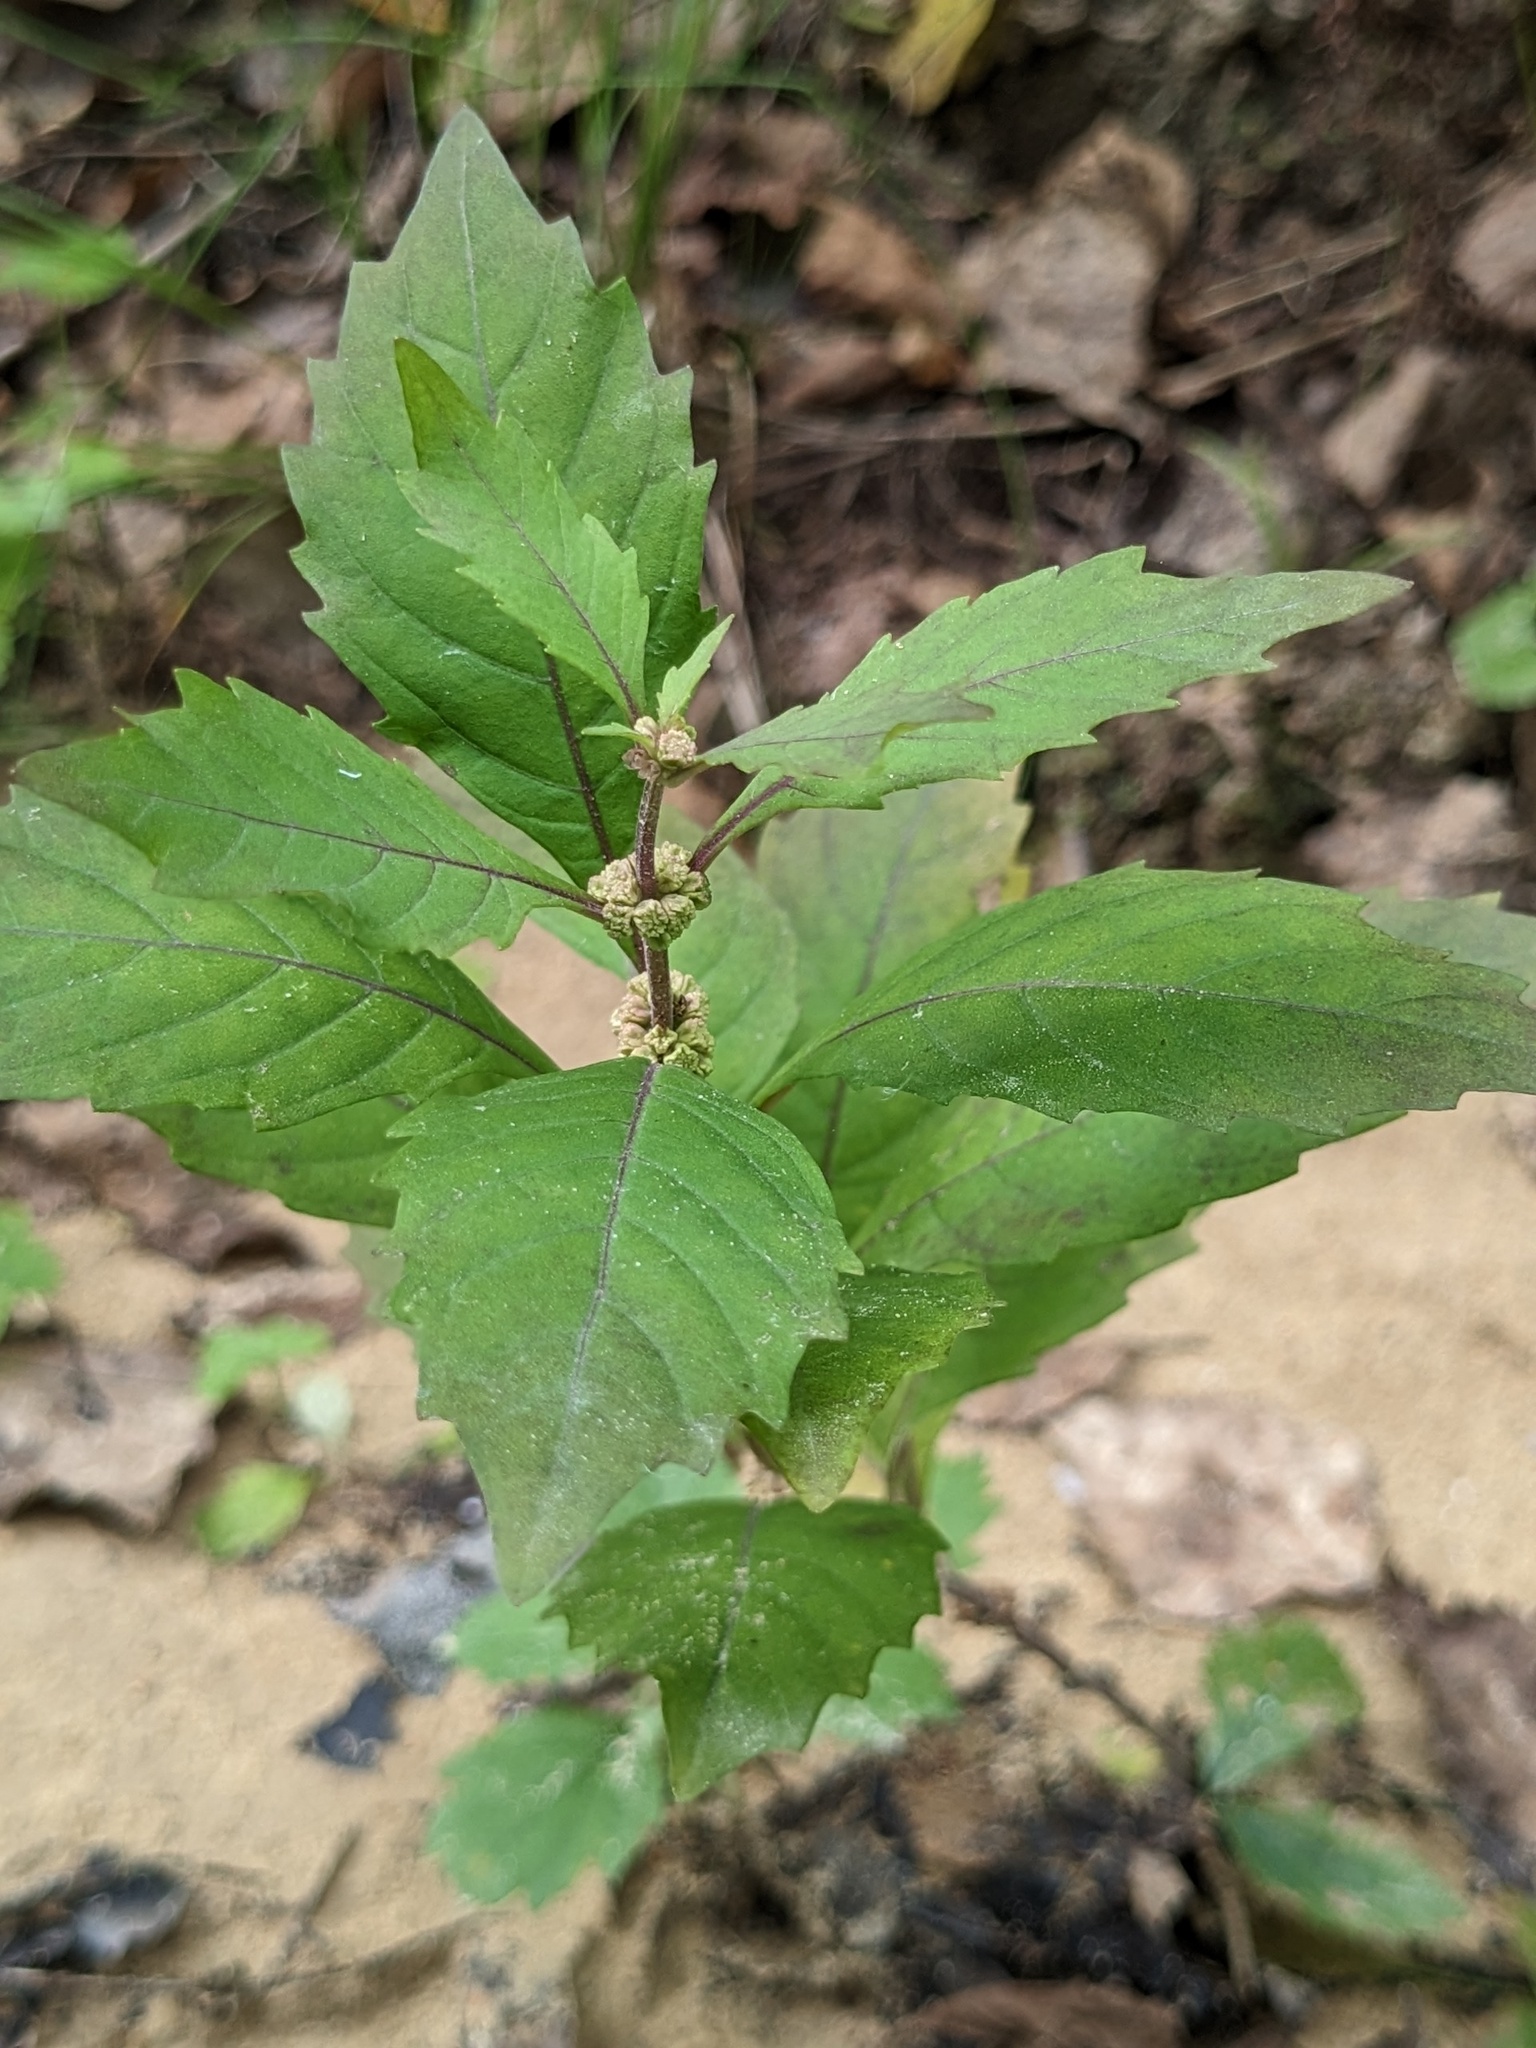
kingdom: Plantae
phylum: Tracheophyta
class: Magnoliopsida
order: Lamiales
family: Lamiaceae
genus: Lycopus
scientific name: Lycopus uniflorus
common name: Northern bugleweed
